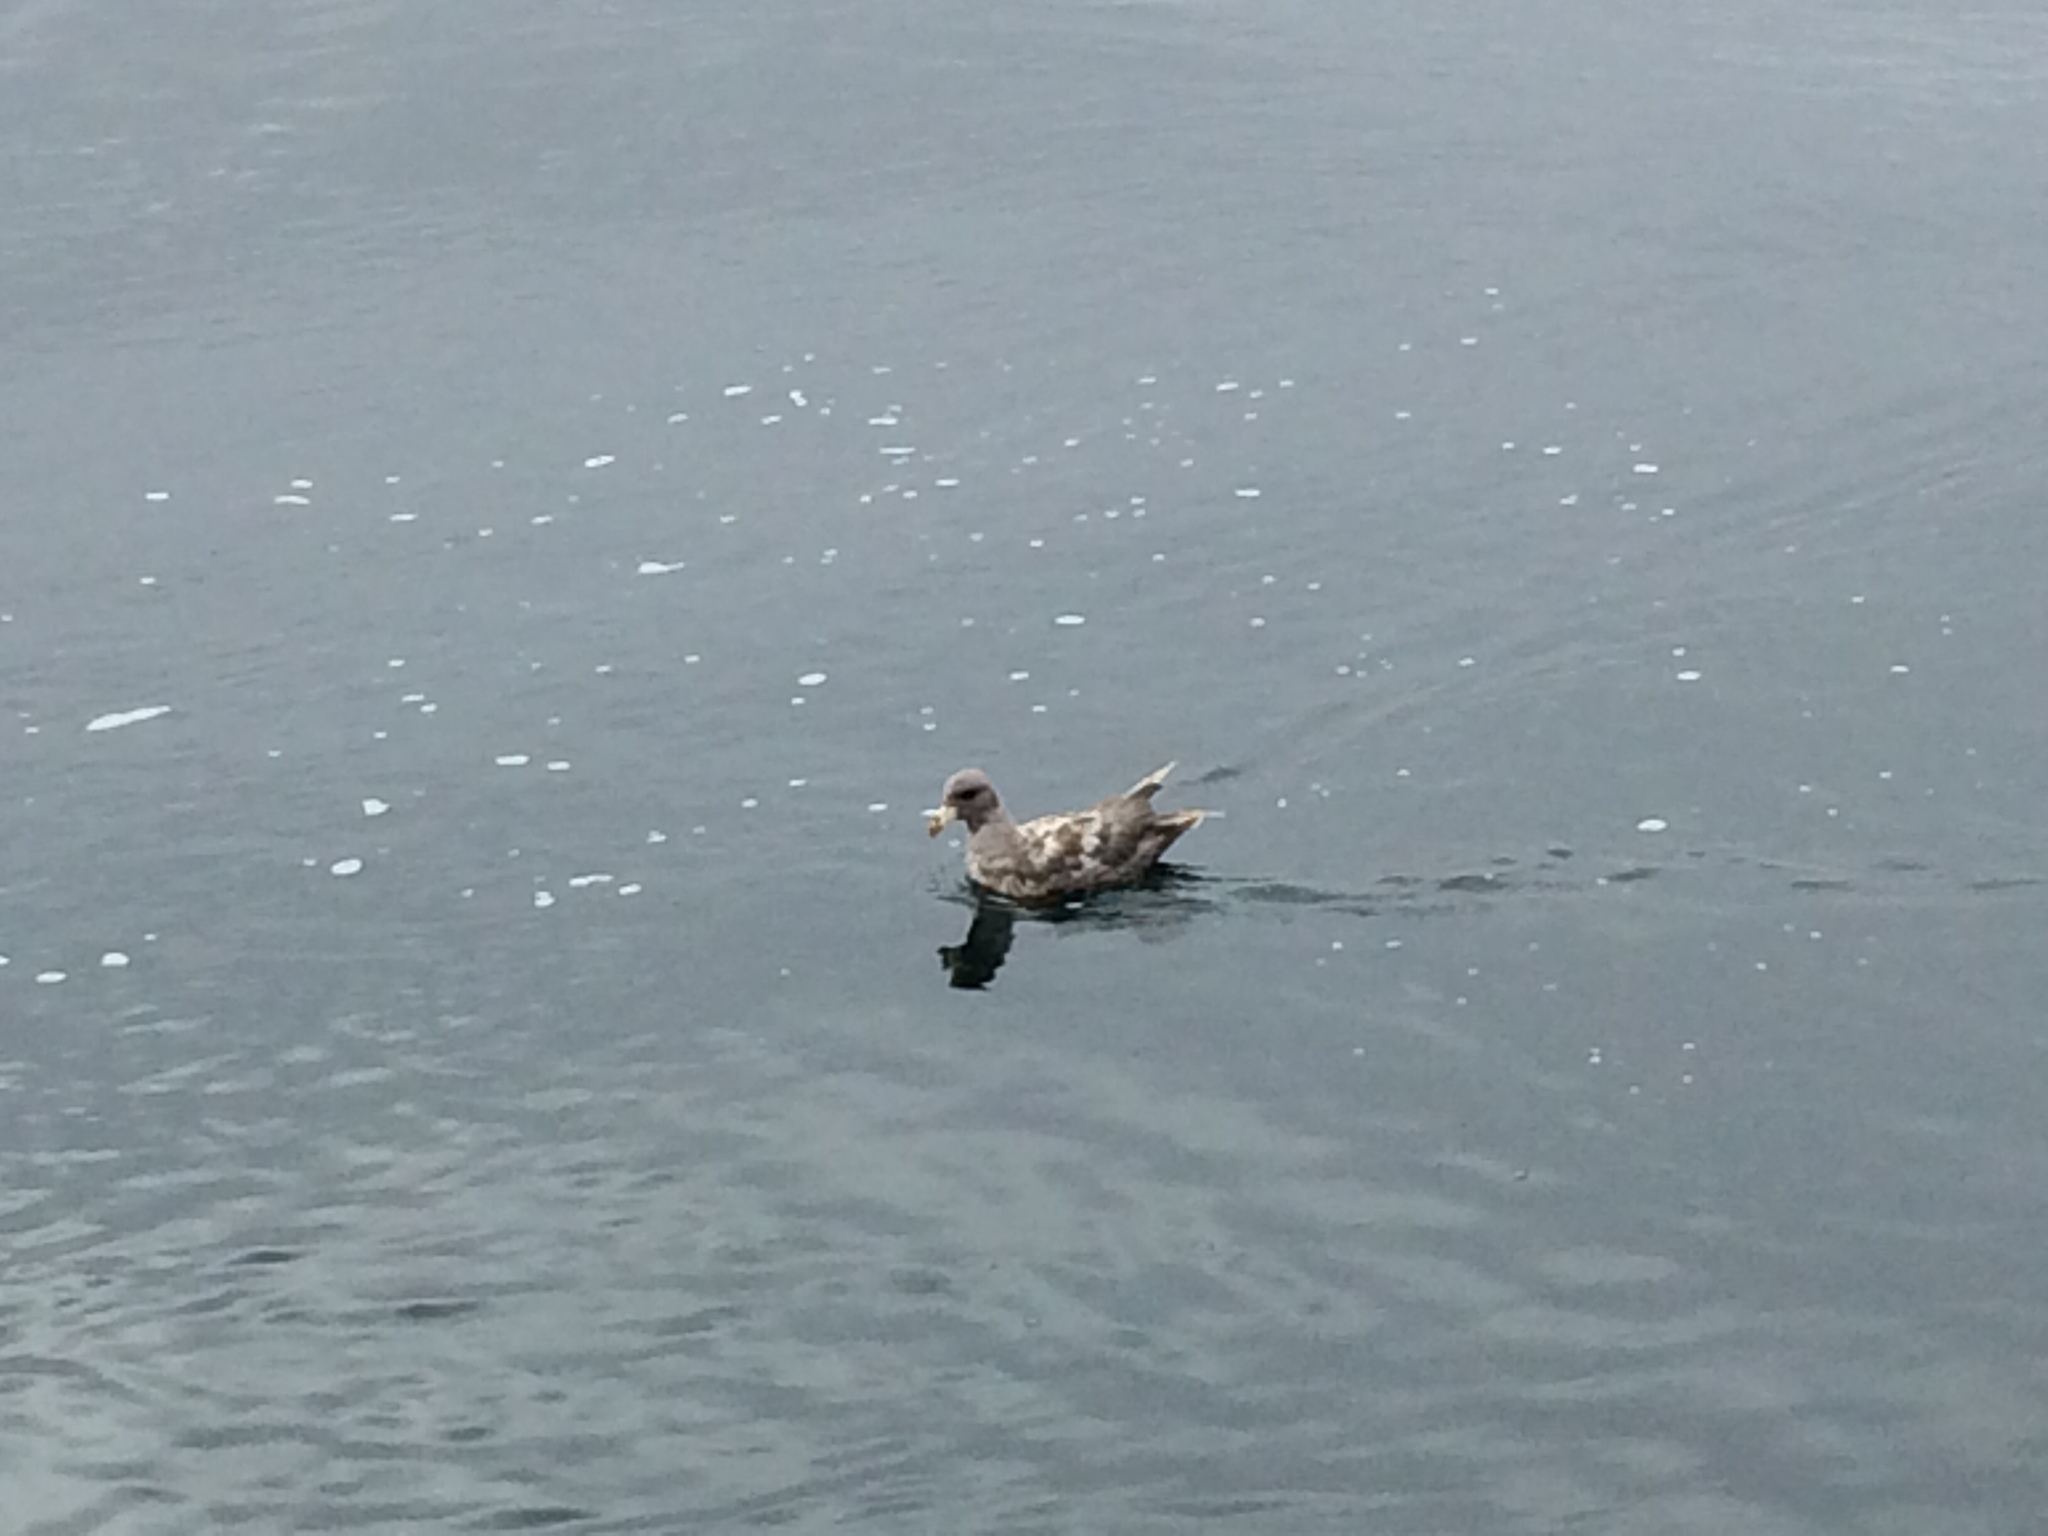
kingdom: Animalia
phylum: Chordata
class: Aves
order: Procellariiformes
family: Procellariidae
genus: Fulmarus
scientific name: Fulmarus glacialis
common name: Northern fulmar
